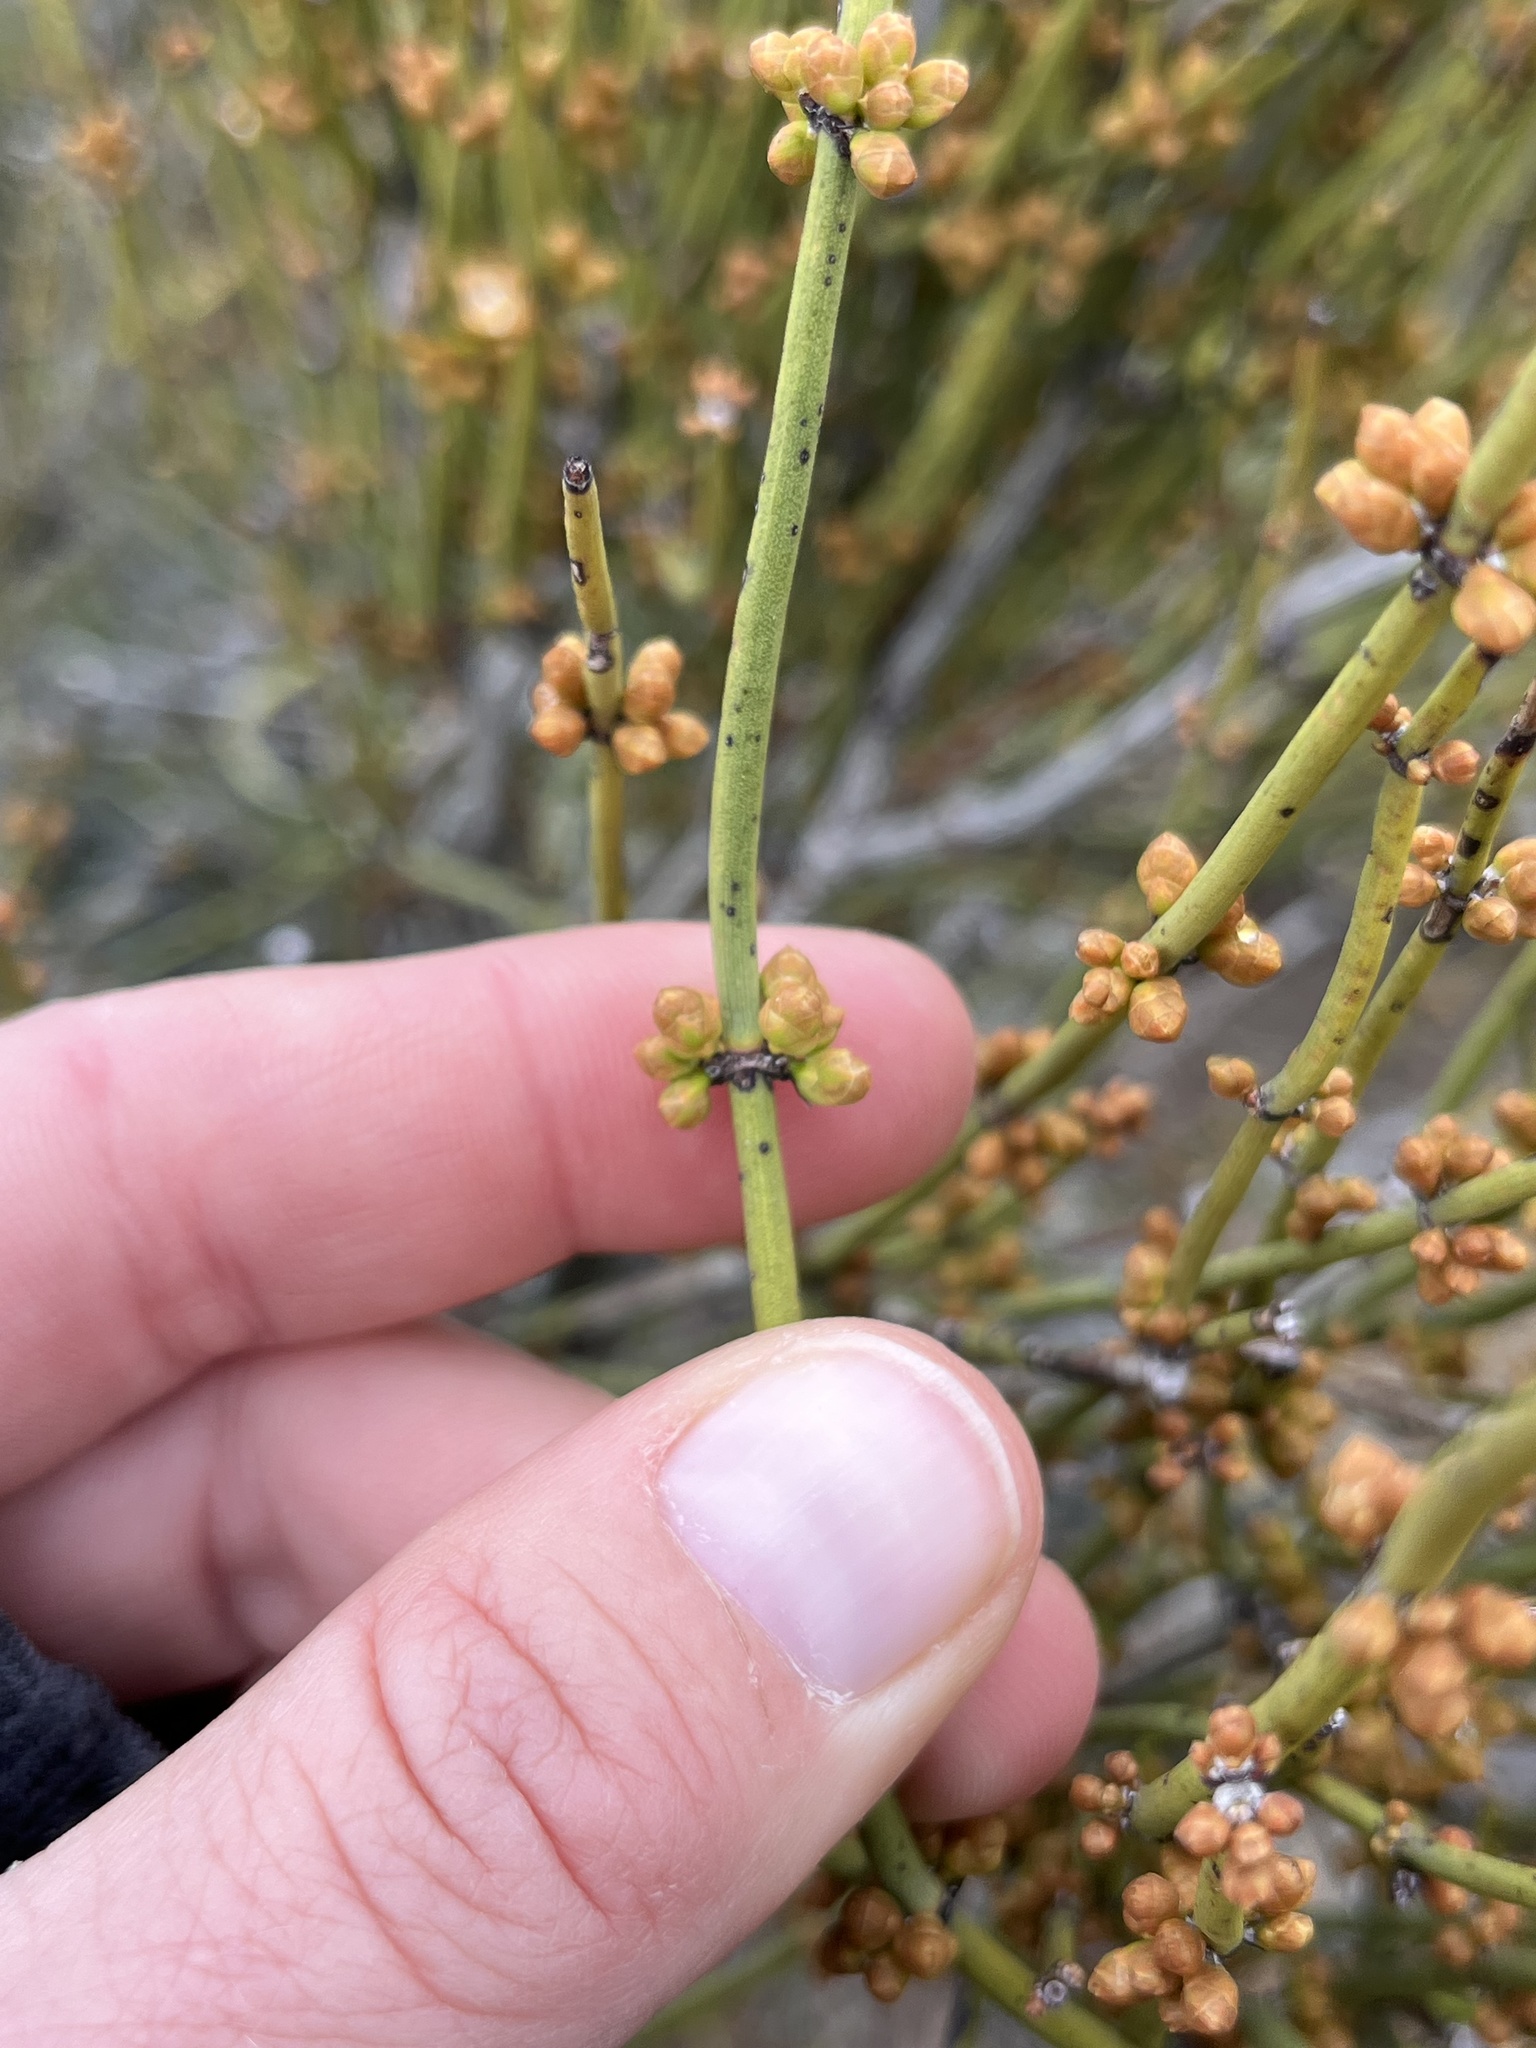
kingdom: Plantae
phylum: Tracheophyta
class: Gnetopsida
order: Ephedrales
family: Ephedraceae
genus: Ephedra
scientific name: Ephedra viridis
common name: Green ephedra
